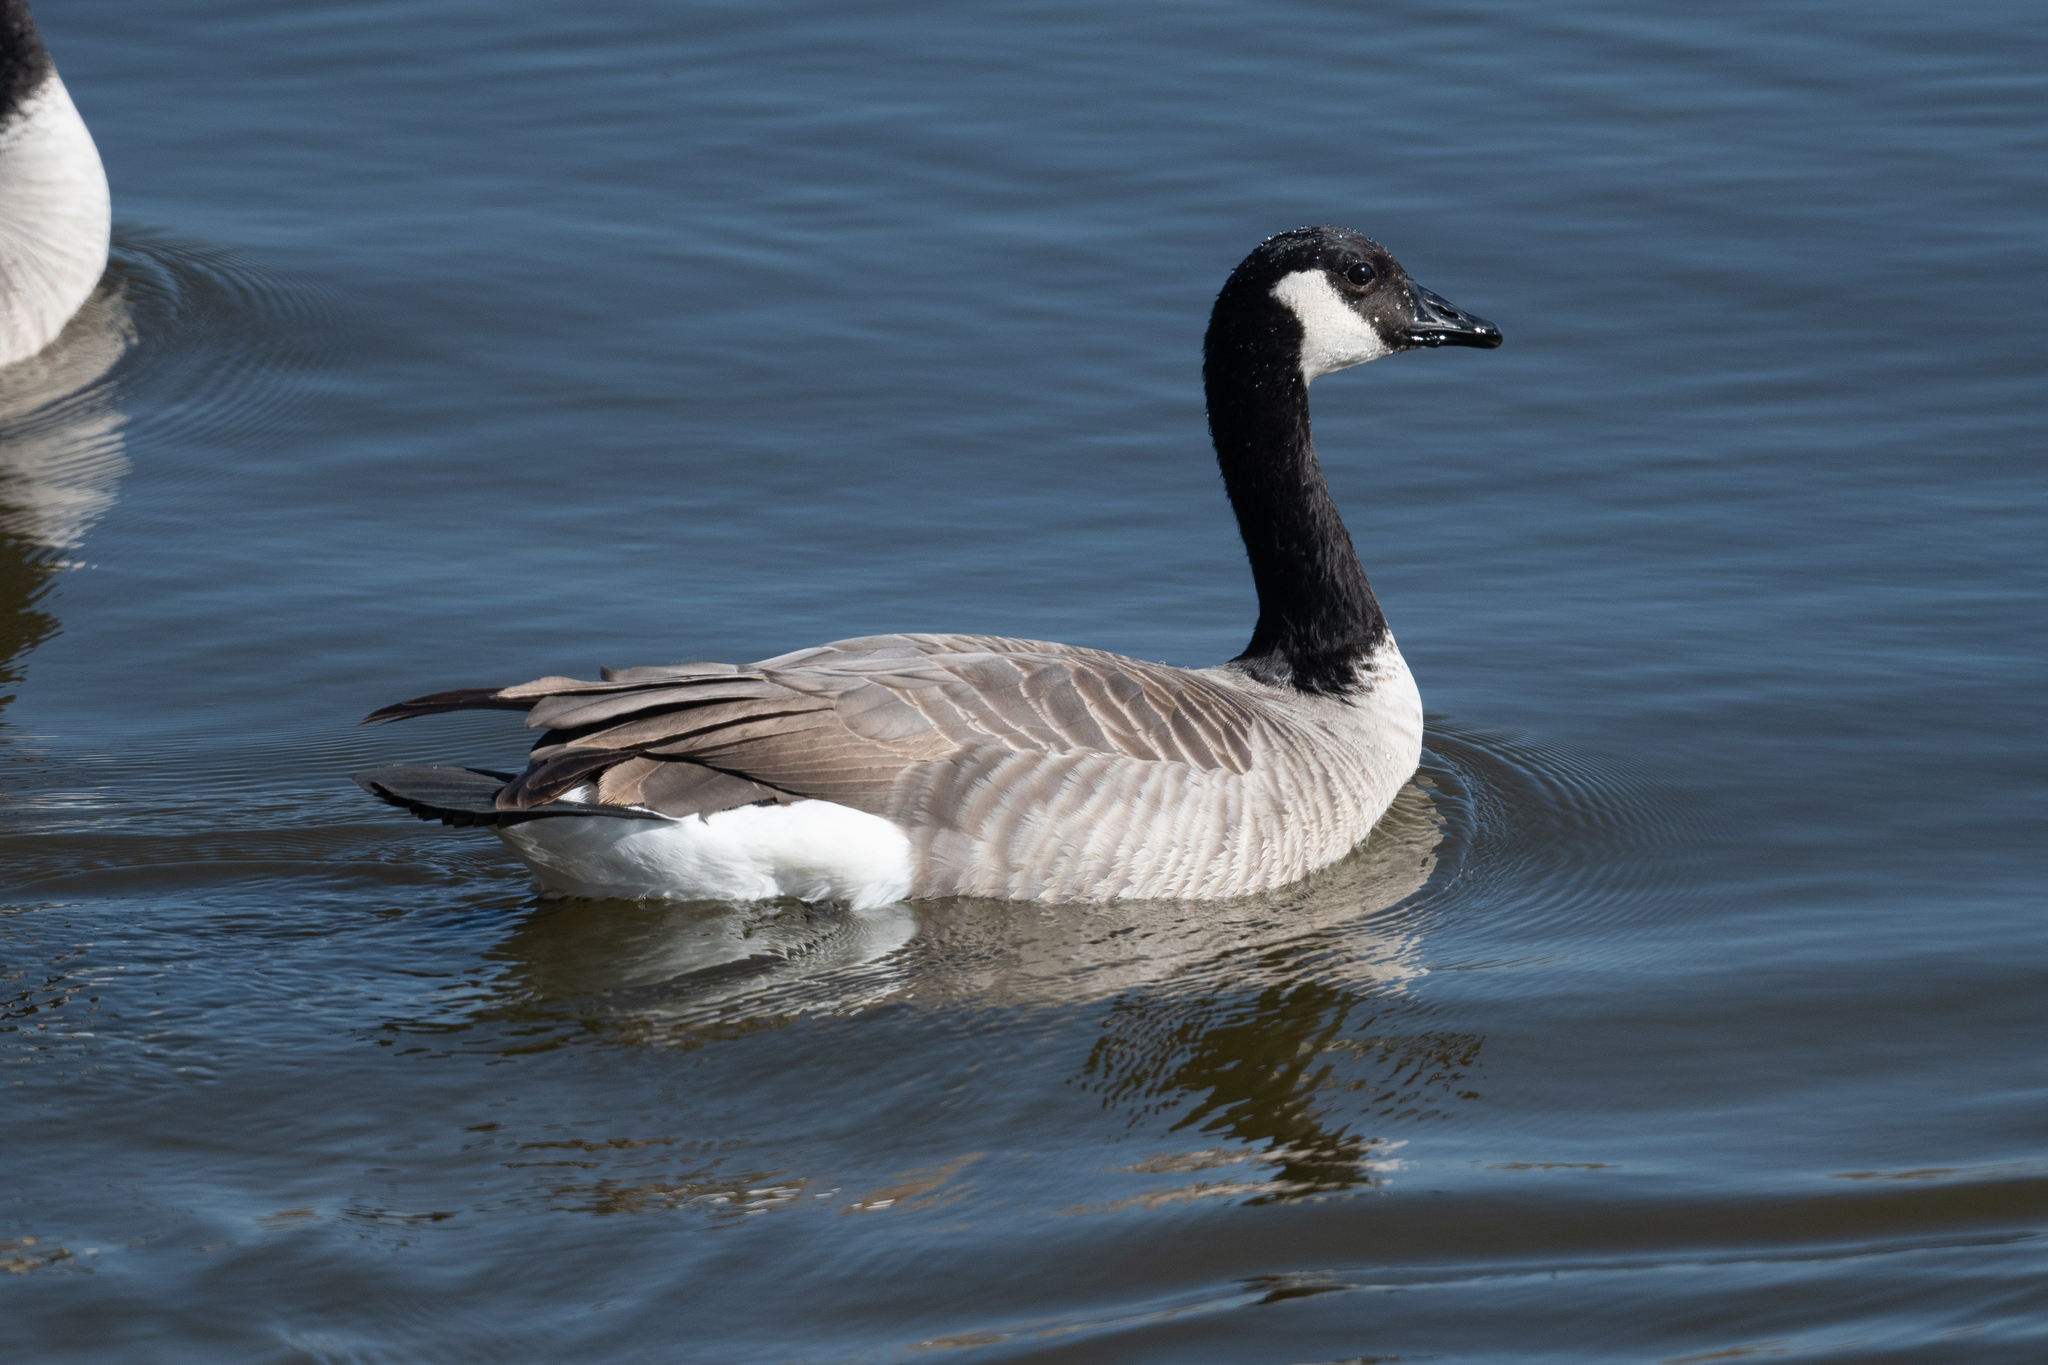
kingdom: Animalia
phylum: Chordata
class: Aves
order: Anseriformes
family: Anatidae
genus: Branta
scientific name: Branta canadensis
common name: Canada goose
